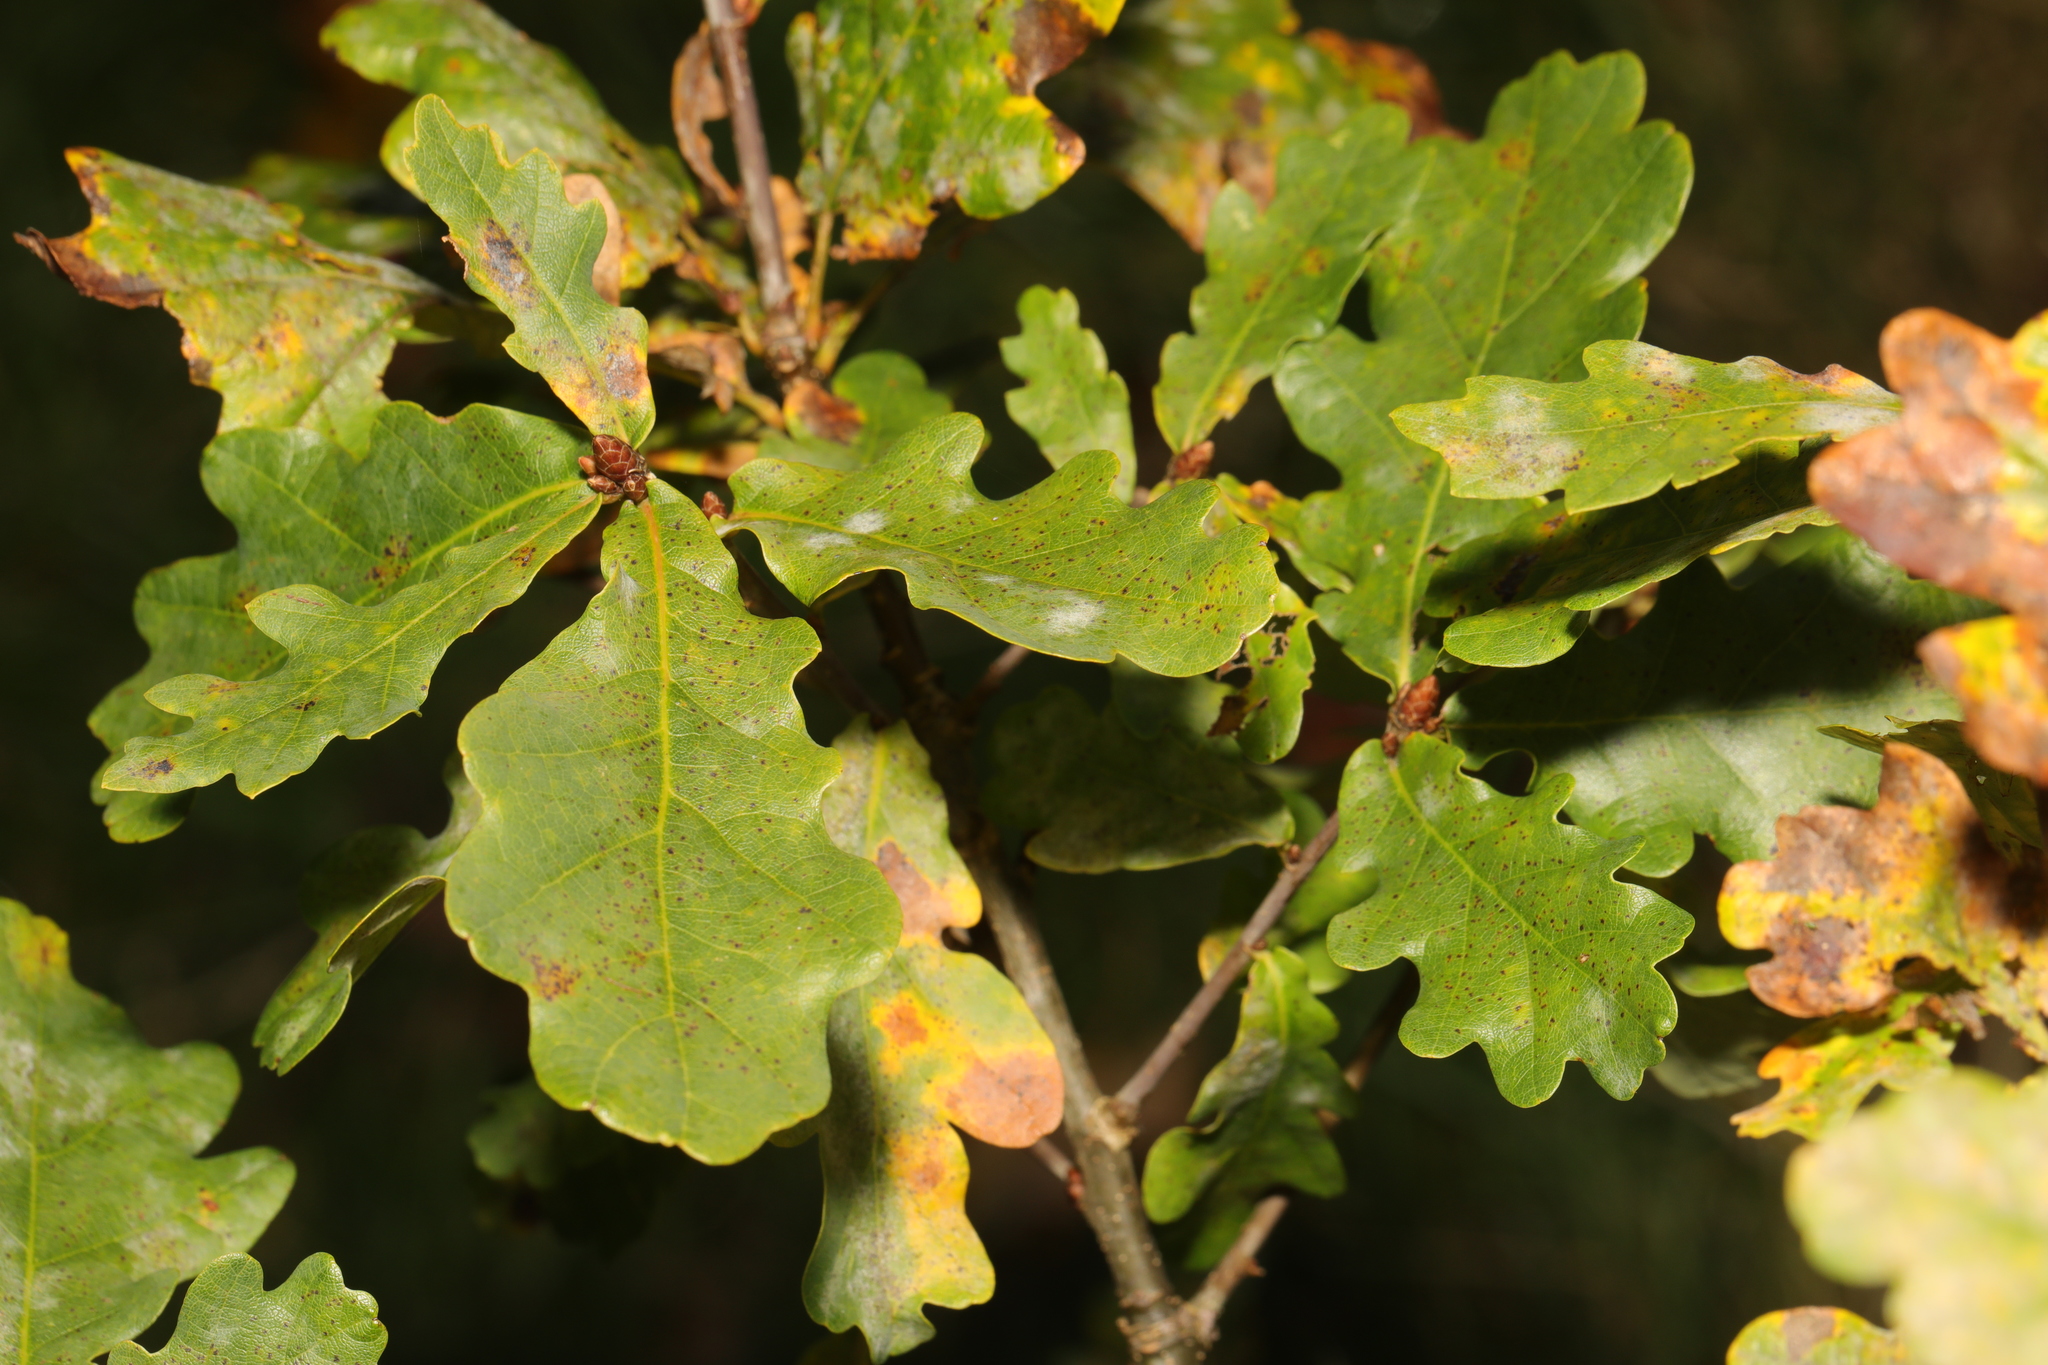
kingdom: Plantae
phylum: Tracheophyta
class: Magnoliopsida
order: Fagales
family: Fagaceae
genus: Quercus
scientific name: Quercus robur
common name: Pedunculate oak
